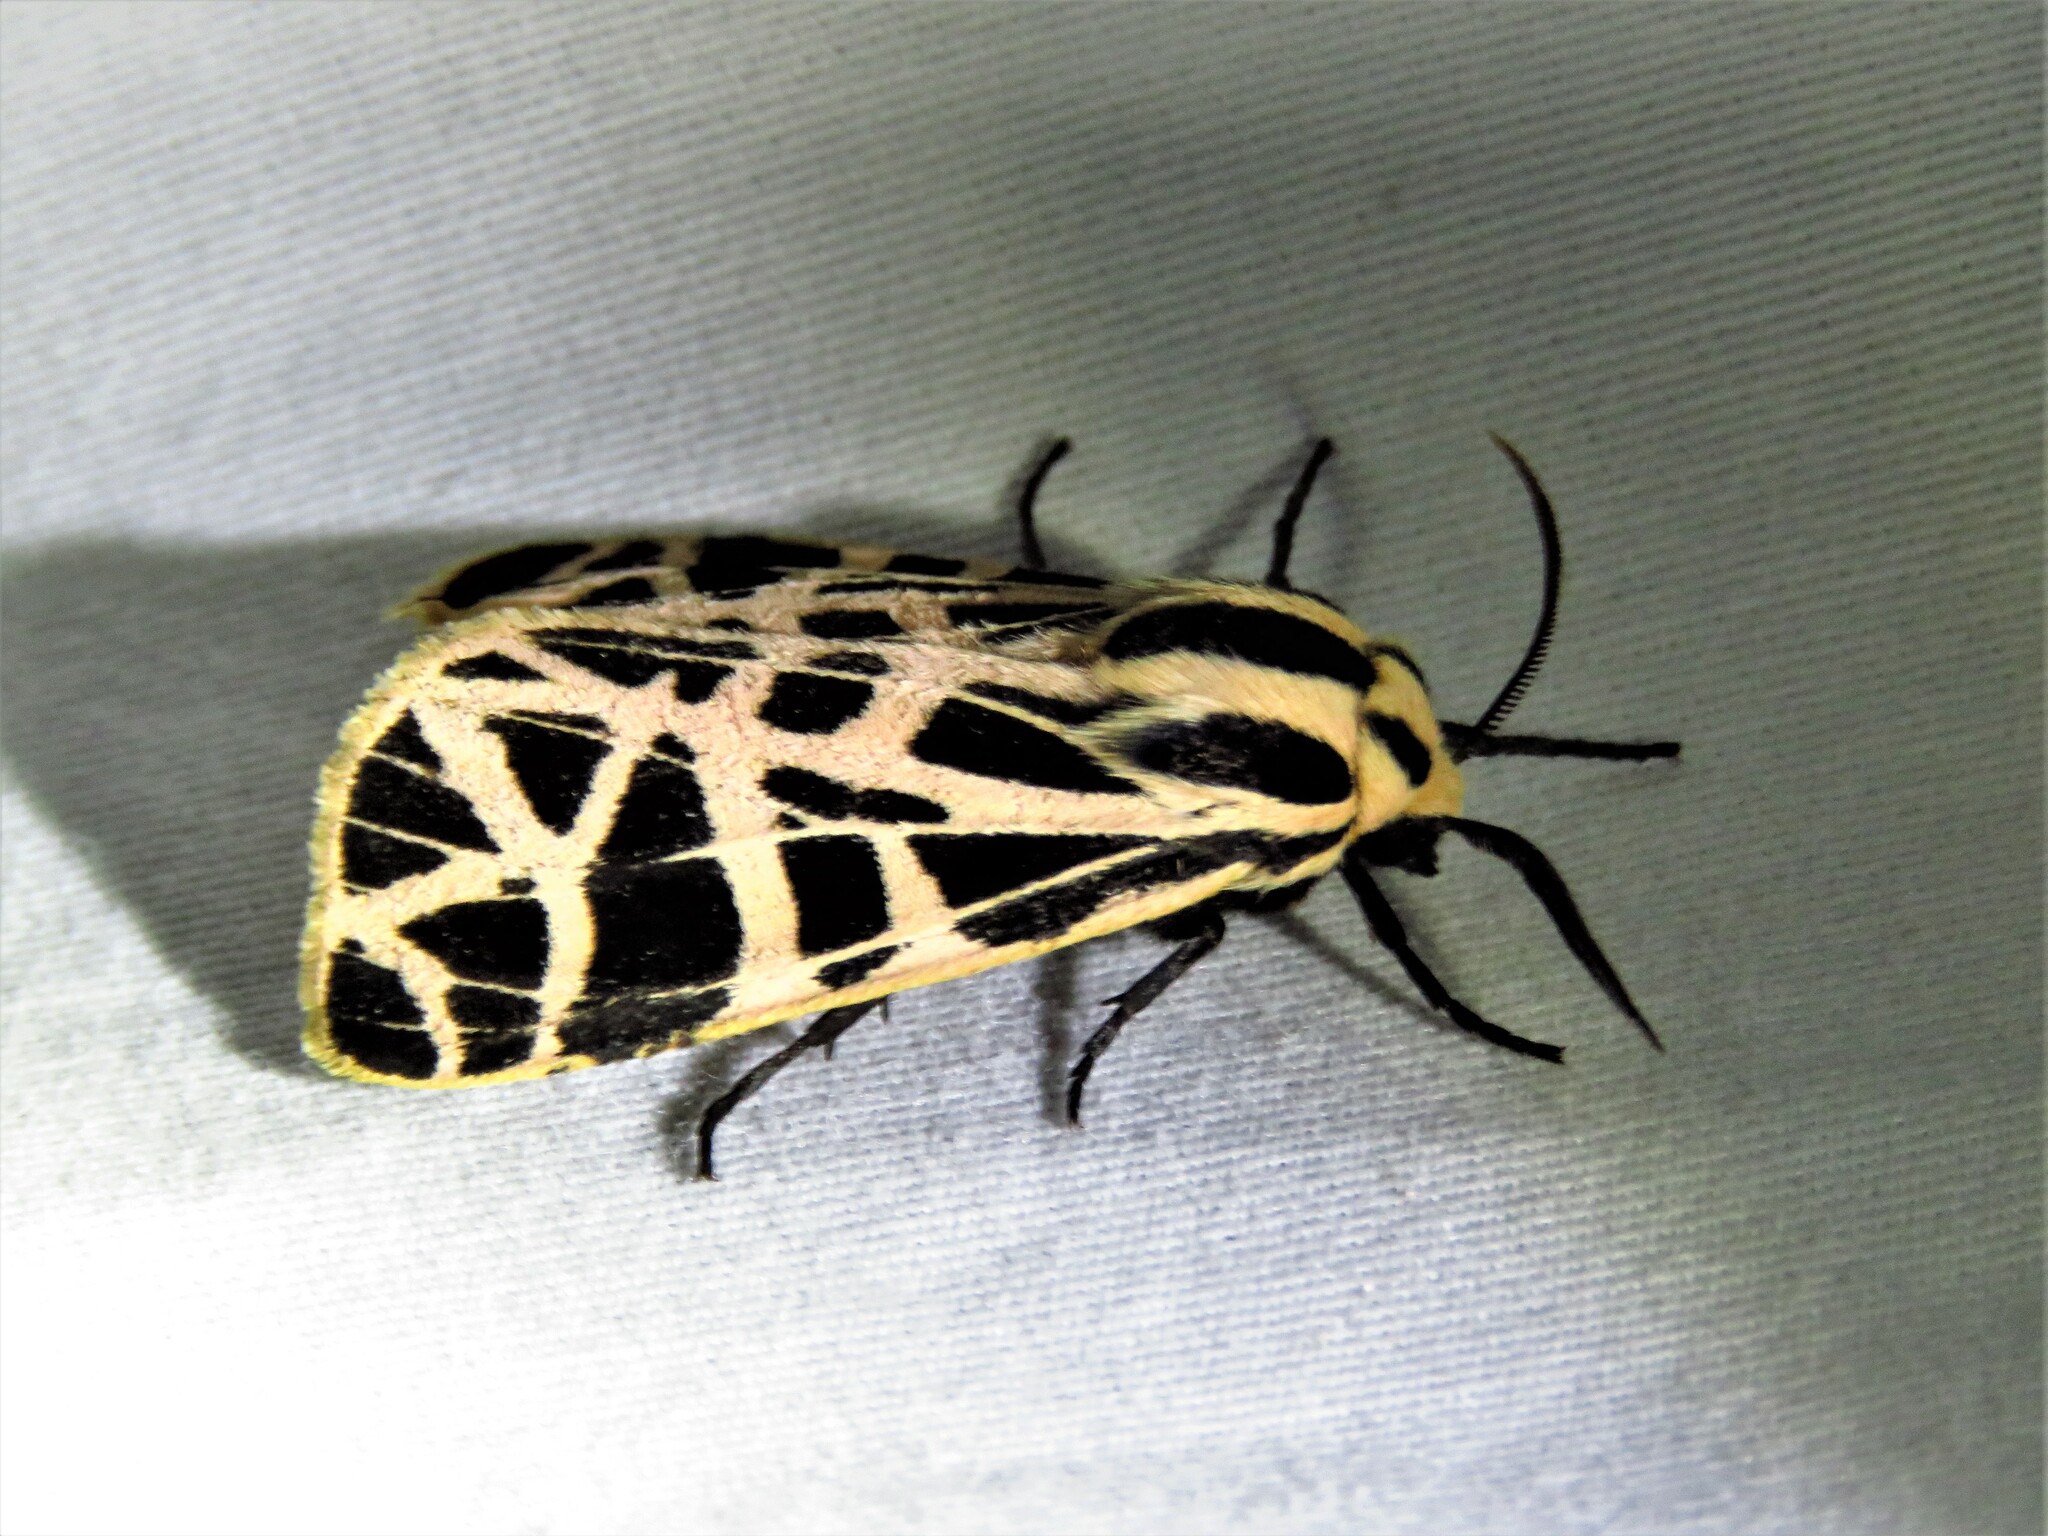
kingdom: Animalia
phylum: Arthropoda
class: Insecta
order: Lepidoptera
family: Erebidae
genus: Grammia
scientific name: Grammia parthenice
